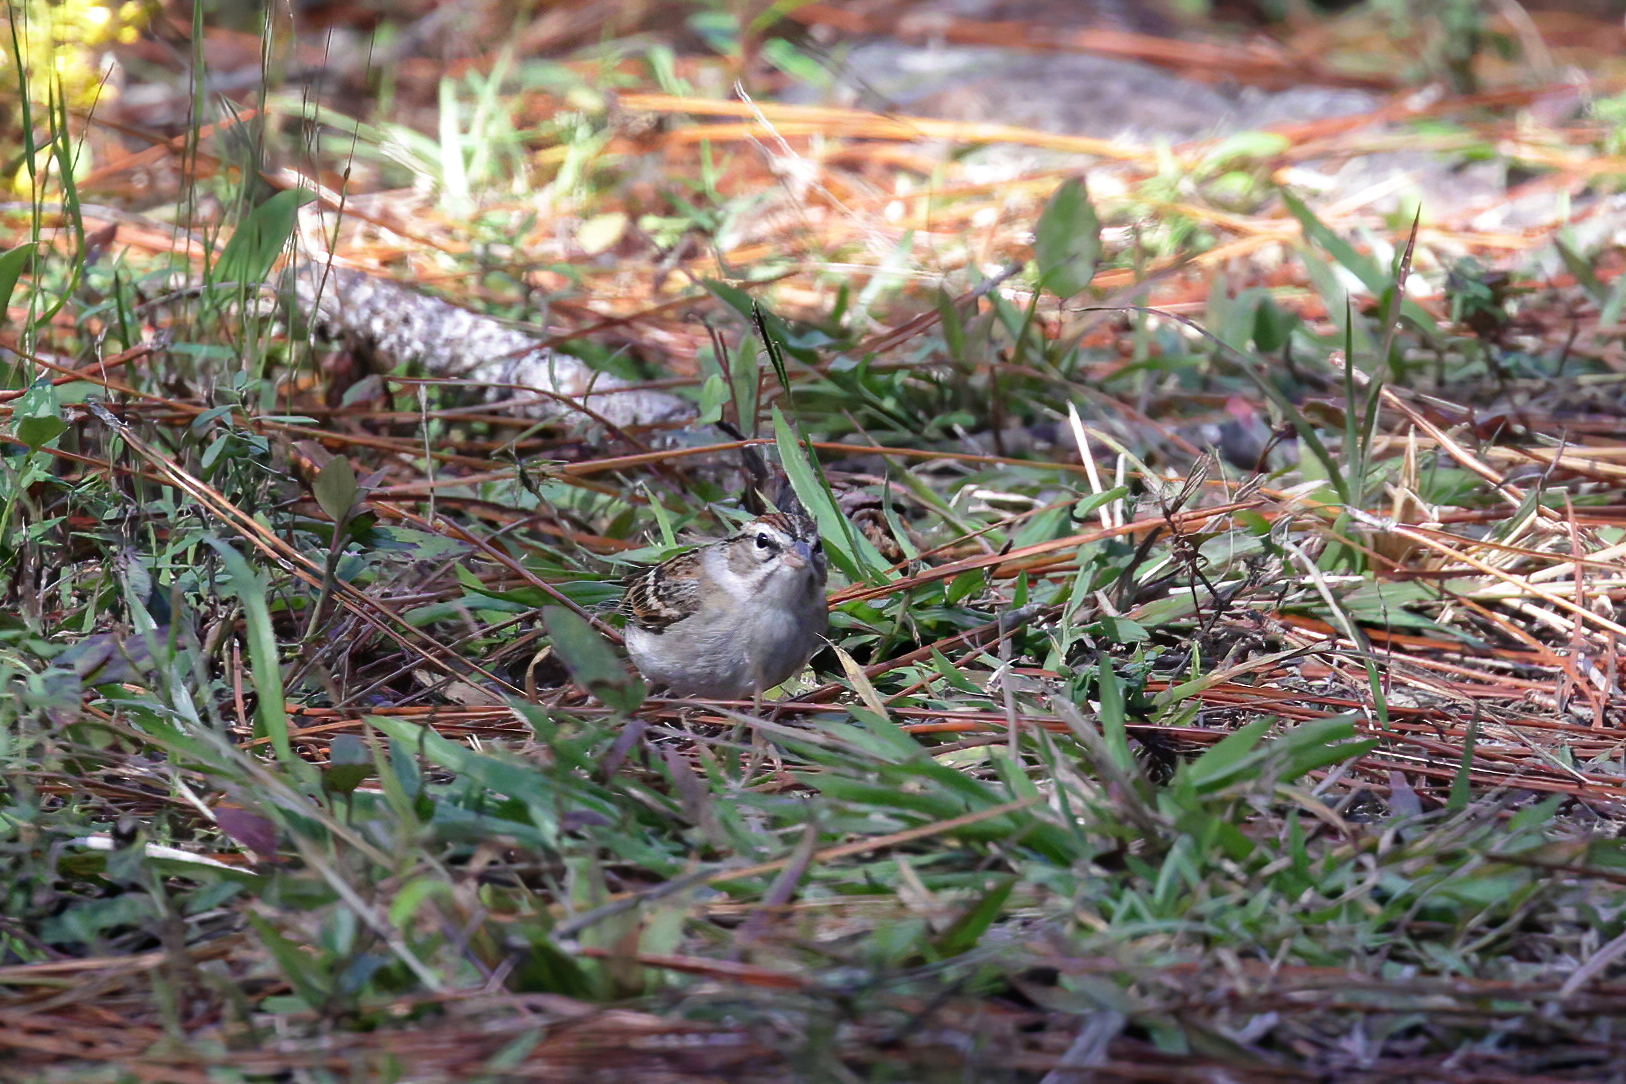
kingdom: Animalia
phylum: Chordata
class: Aves
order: Passeriformes
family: Passerellidae
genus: Spizella
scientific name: Spizella passerina
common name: Chipping sparrow
